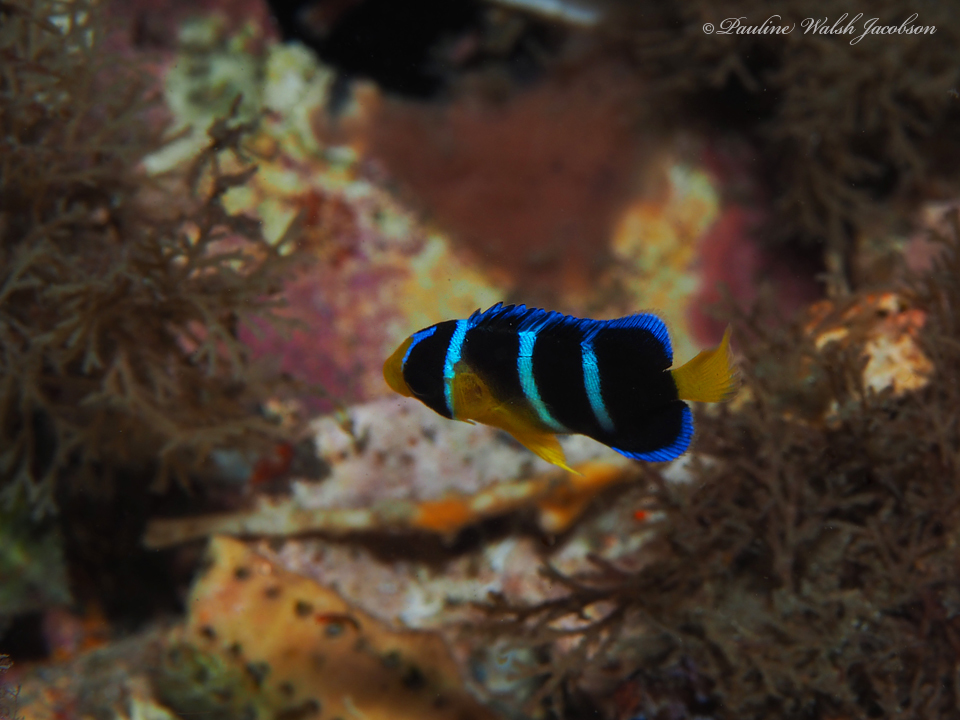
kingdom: Animalia
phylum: Chordata
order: Perciformes
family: Pomacanthidae
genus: Holacanthus
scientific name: Holacanthus
